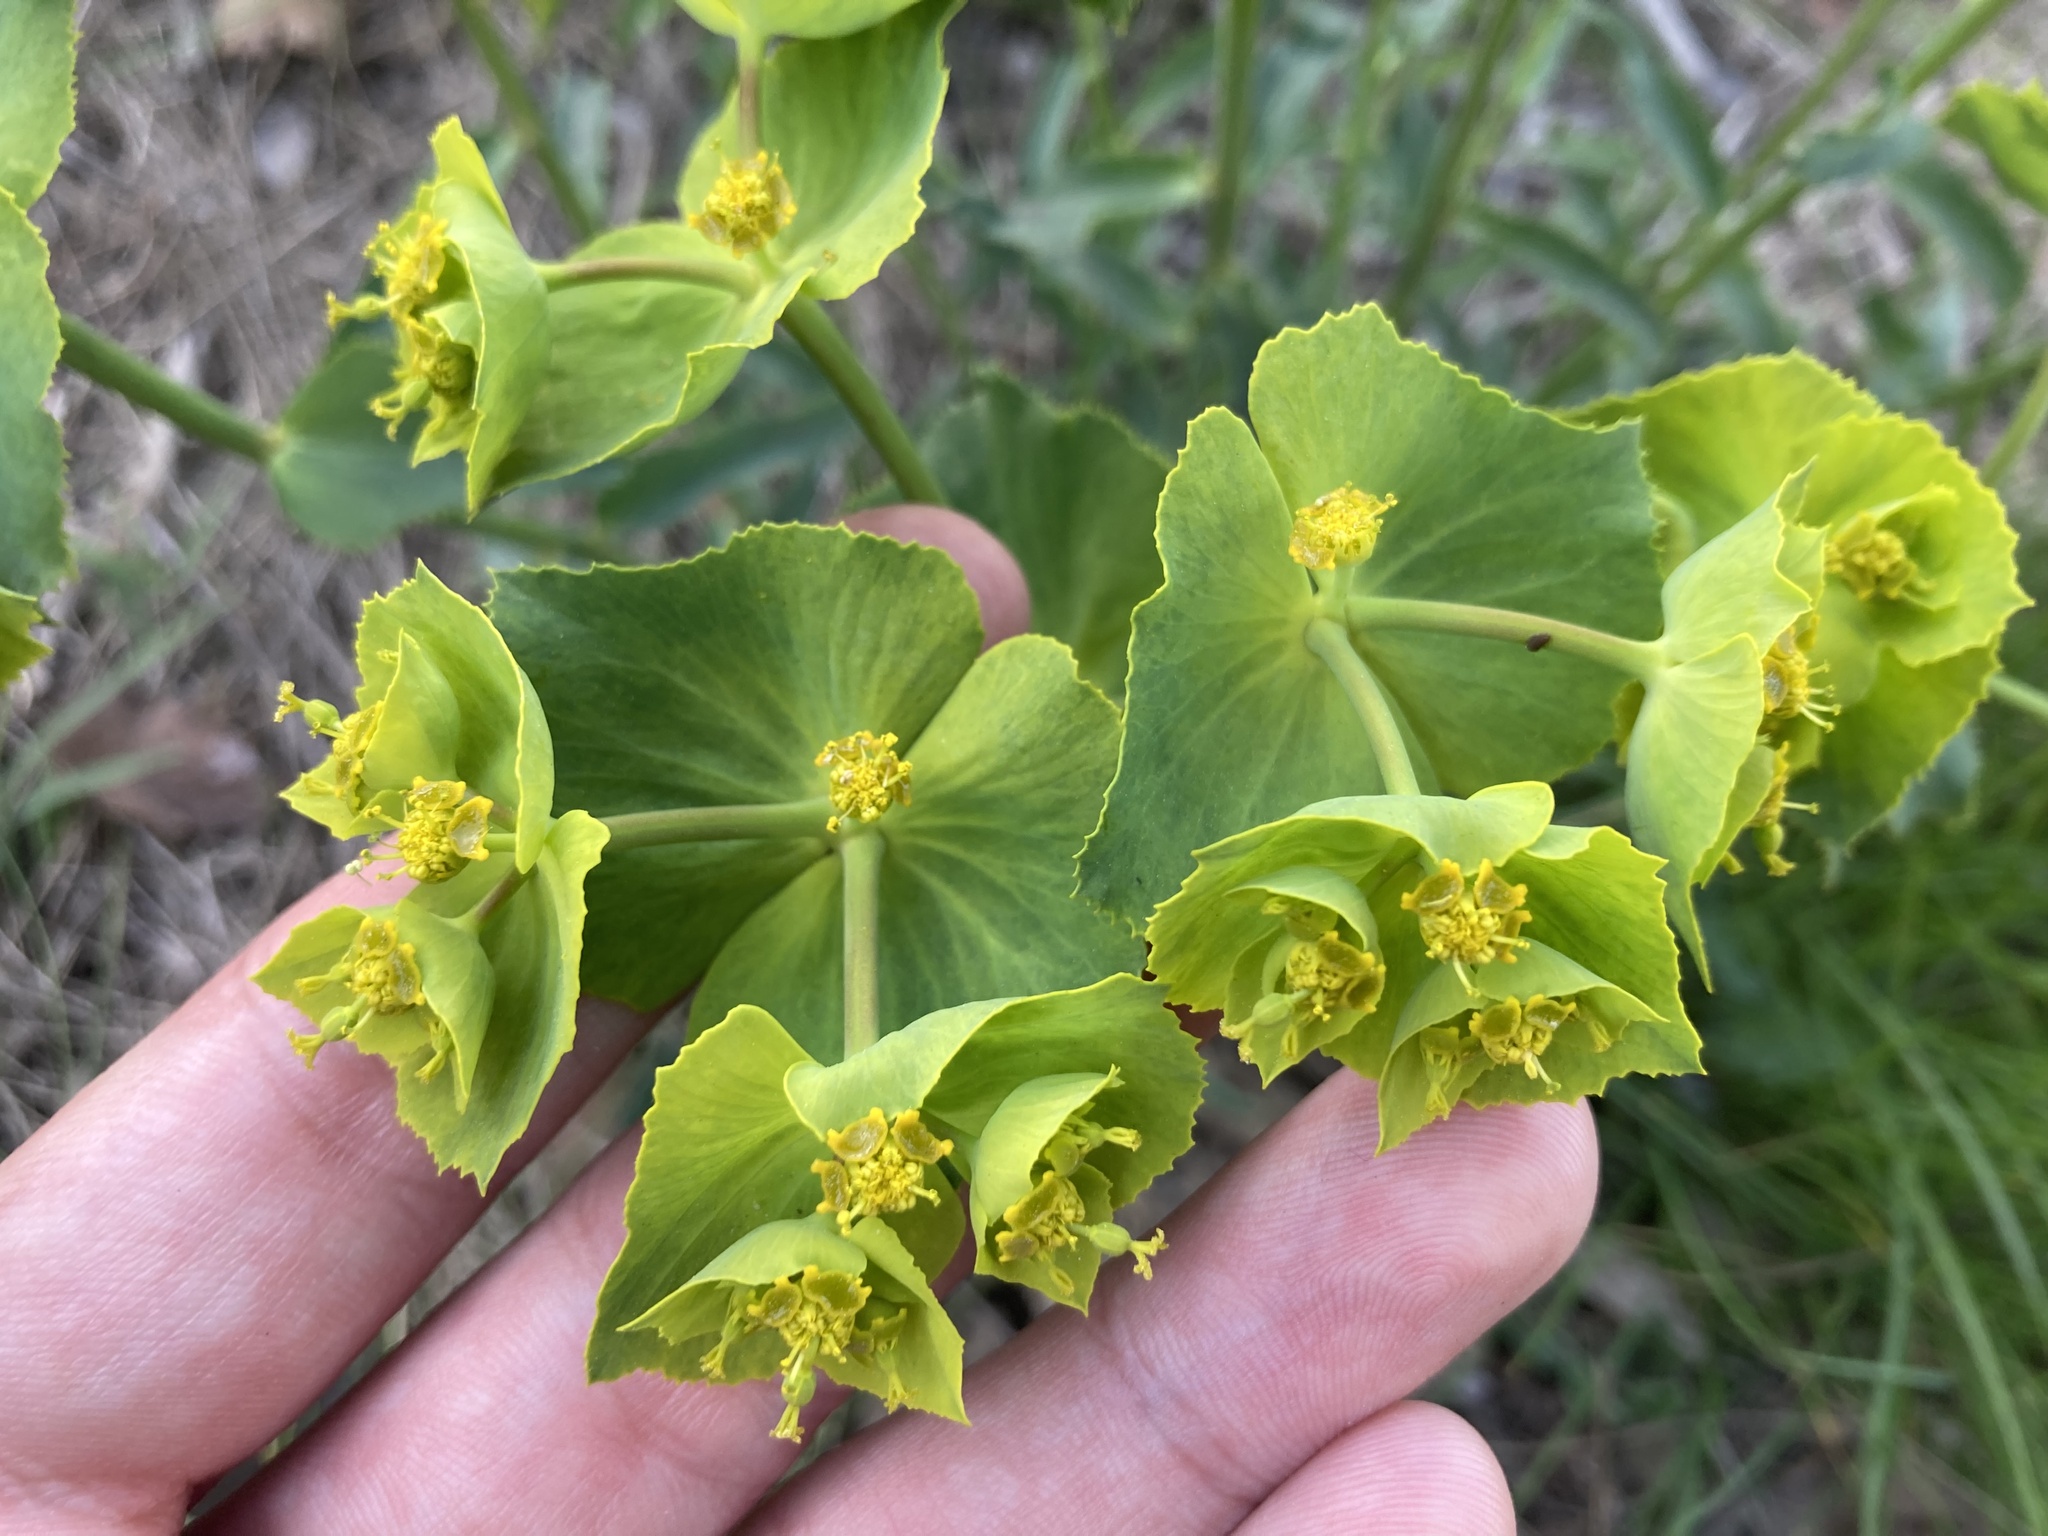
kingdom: Plantae
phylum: Tracheophyta
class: Magnoliopsida
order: Malpighiales
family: Euphorbiaceae
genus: Euphorbia
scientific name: Euphorbia serrata
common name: Serrate spurge
